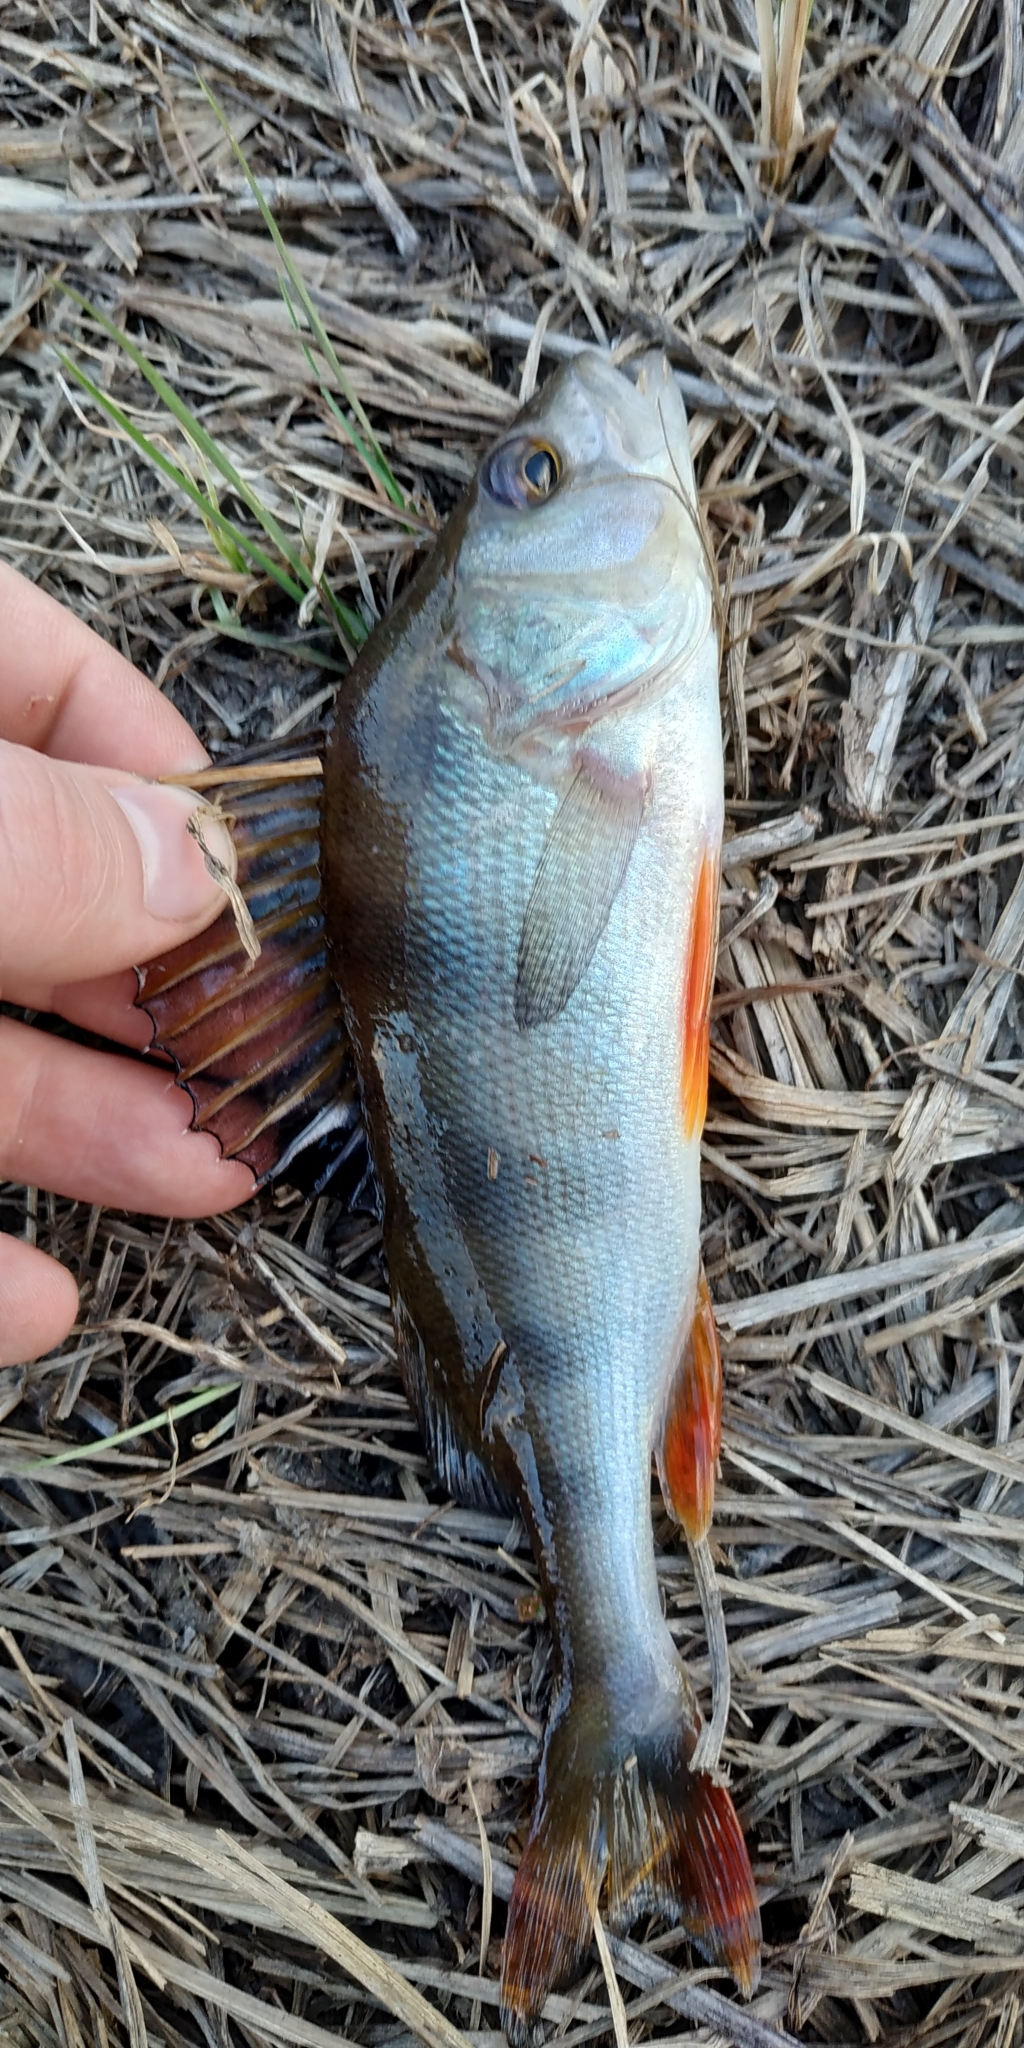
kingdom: Animalia
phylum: Chordata
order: Perciformes
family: Percidae
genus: Perca
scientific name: Perca fluviatilis
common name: Perch
